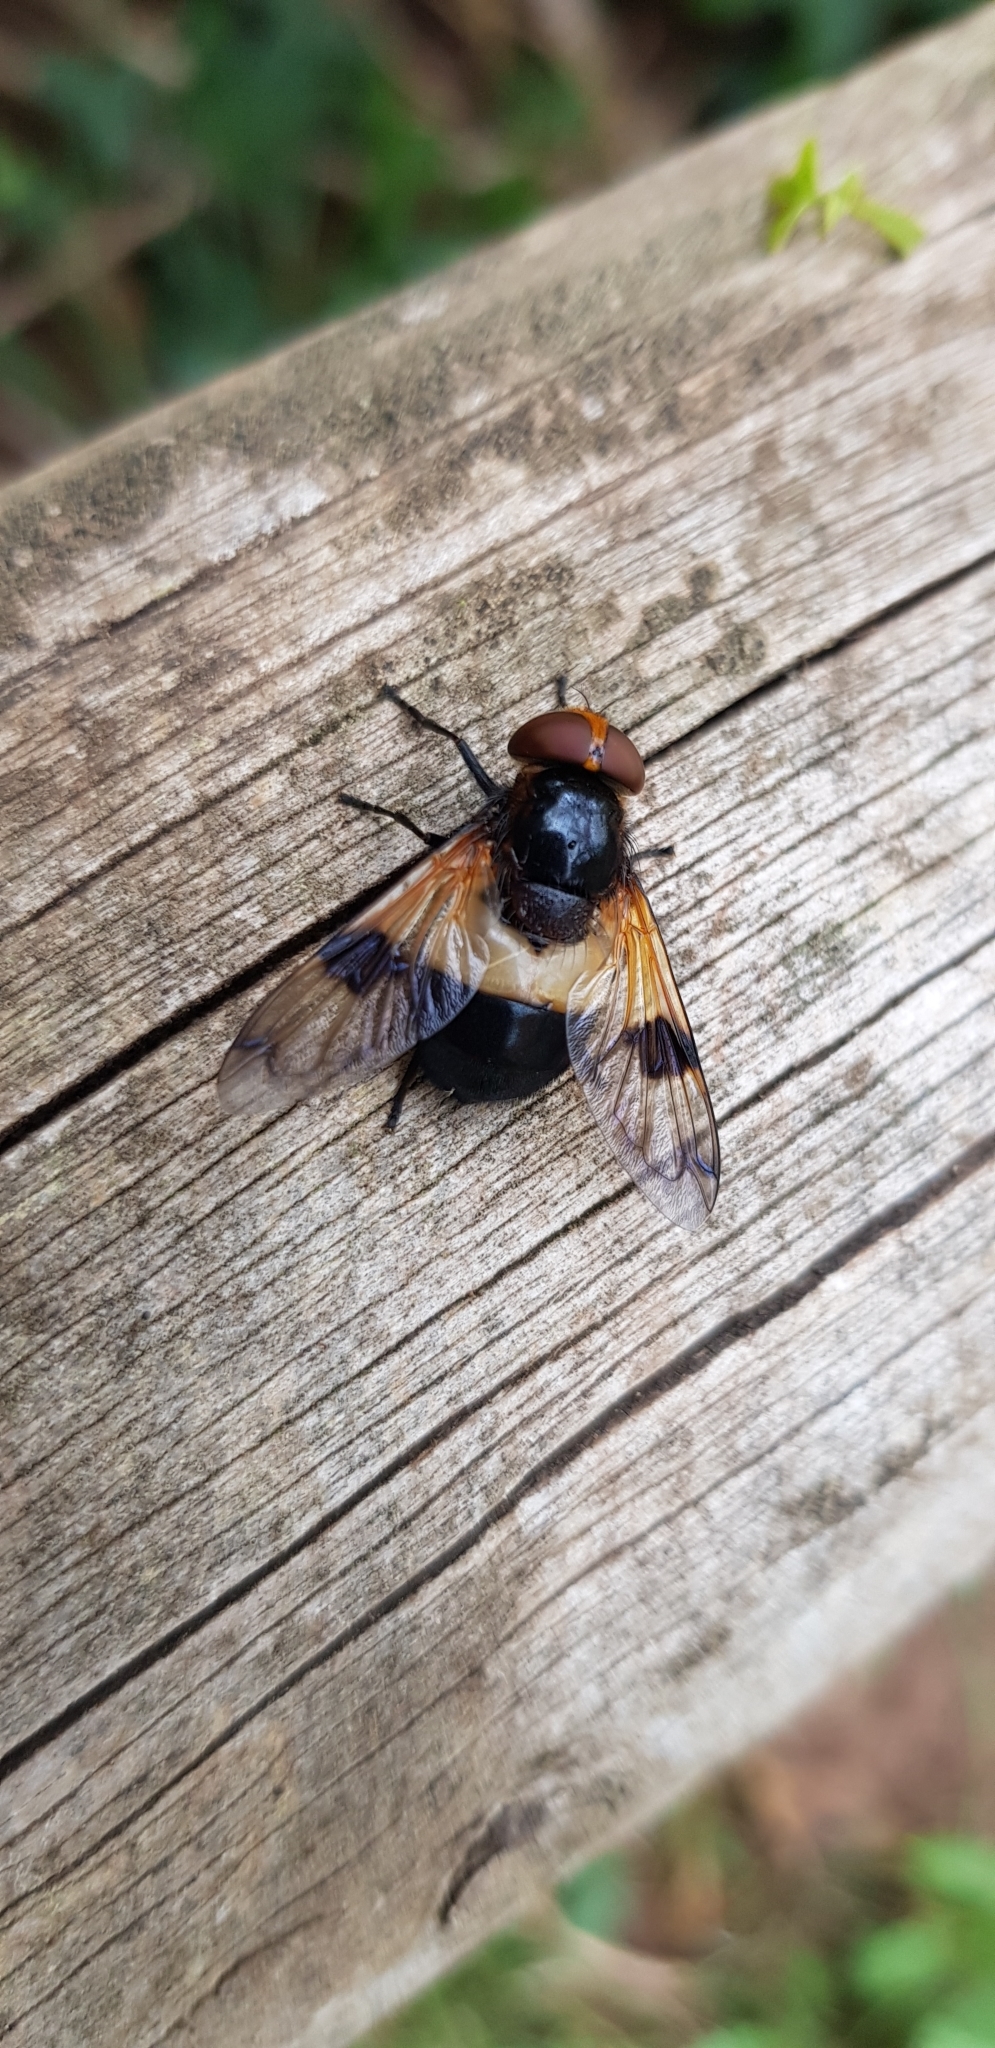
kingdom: Animalia
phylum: Arthropoda
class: Insecta
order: Diptera
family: Syrphidae
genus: Volucella
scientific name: Volucella pellucens
